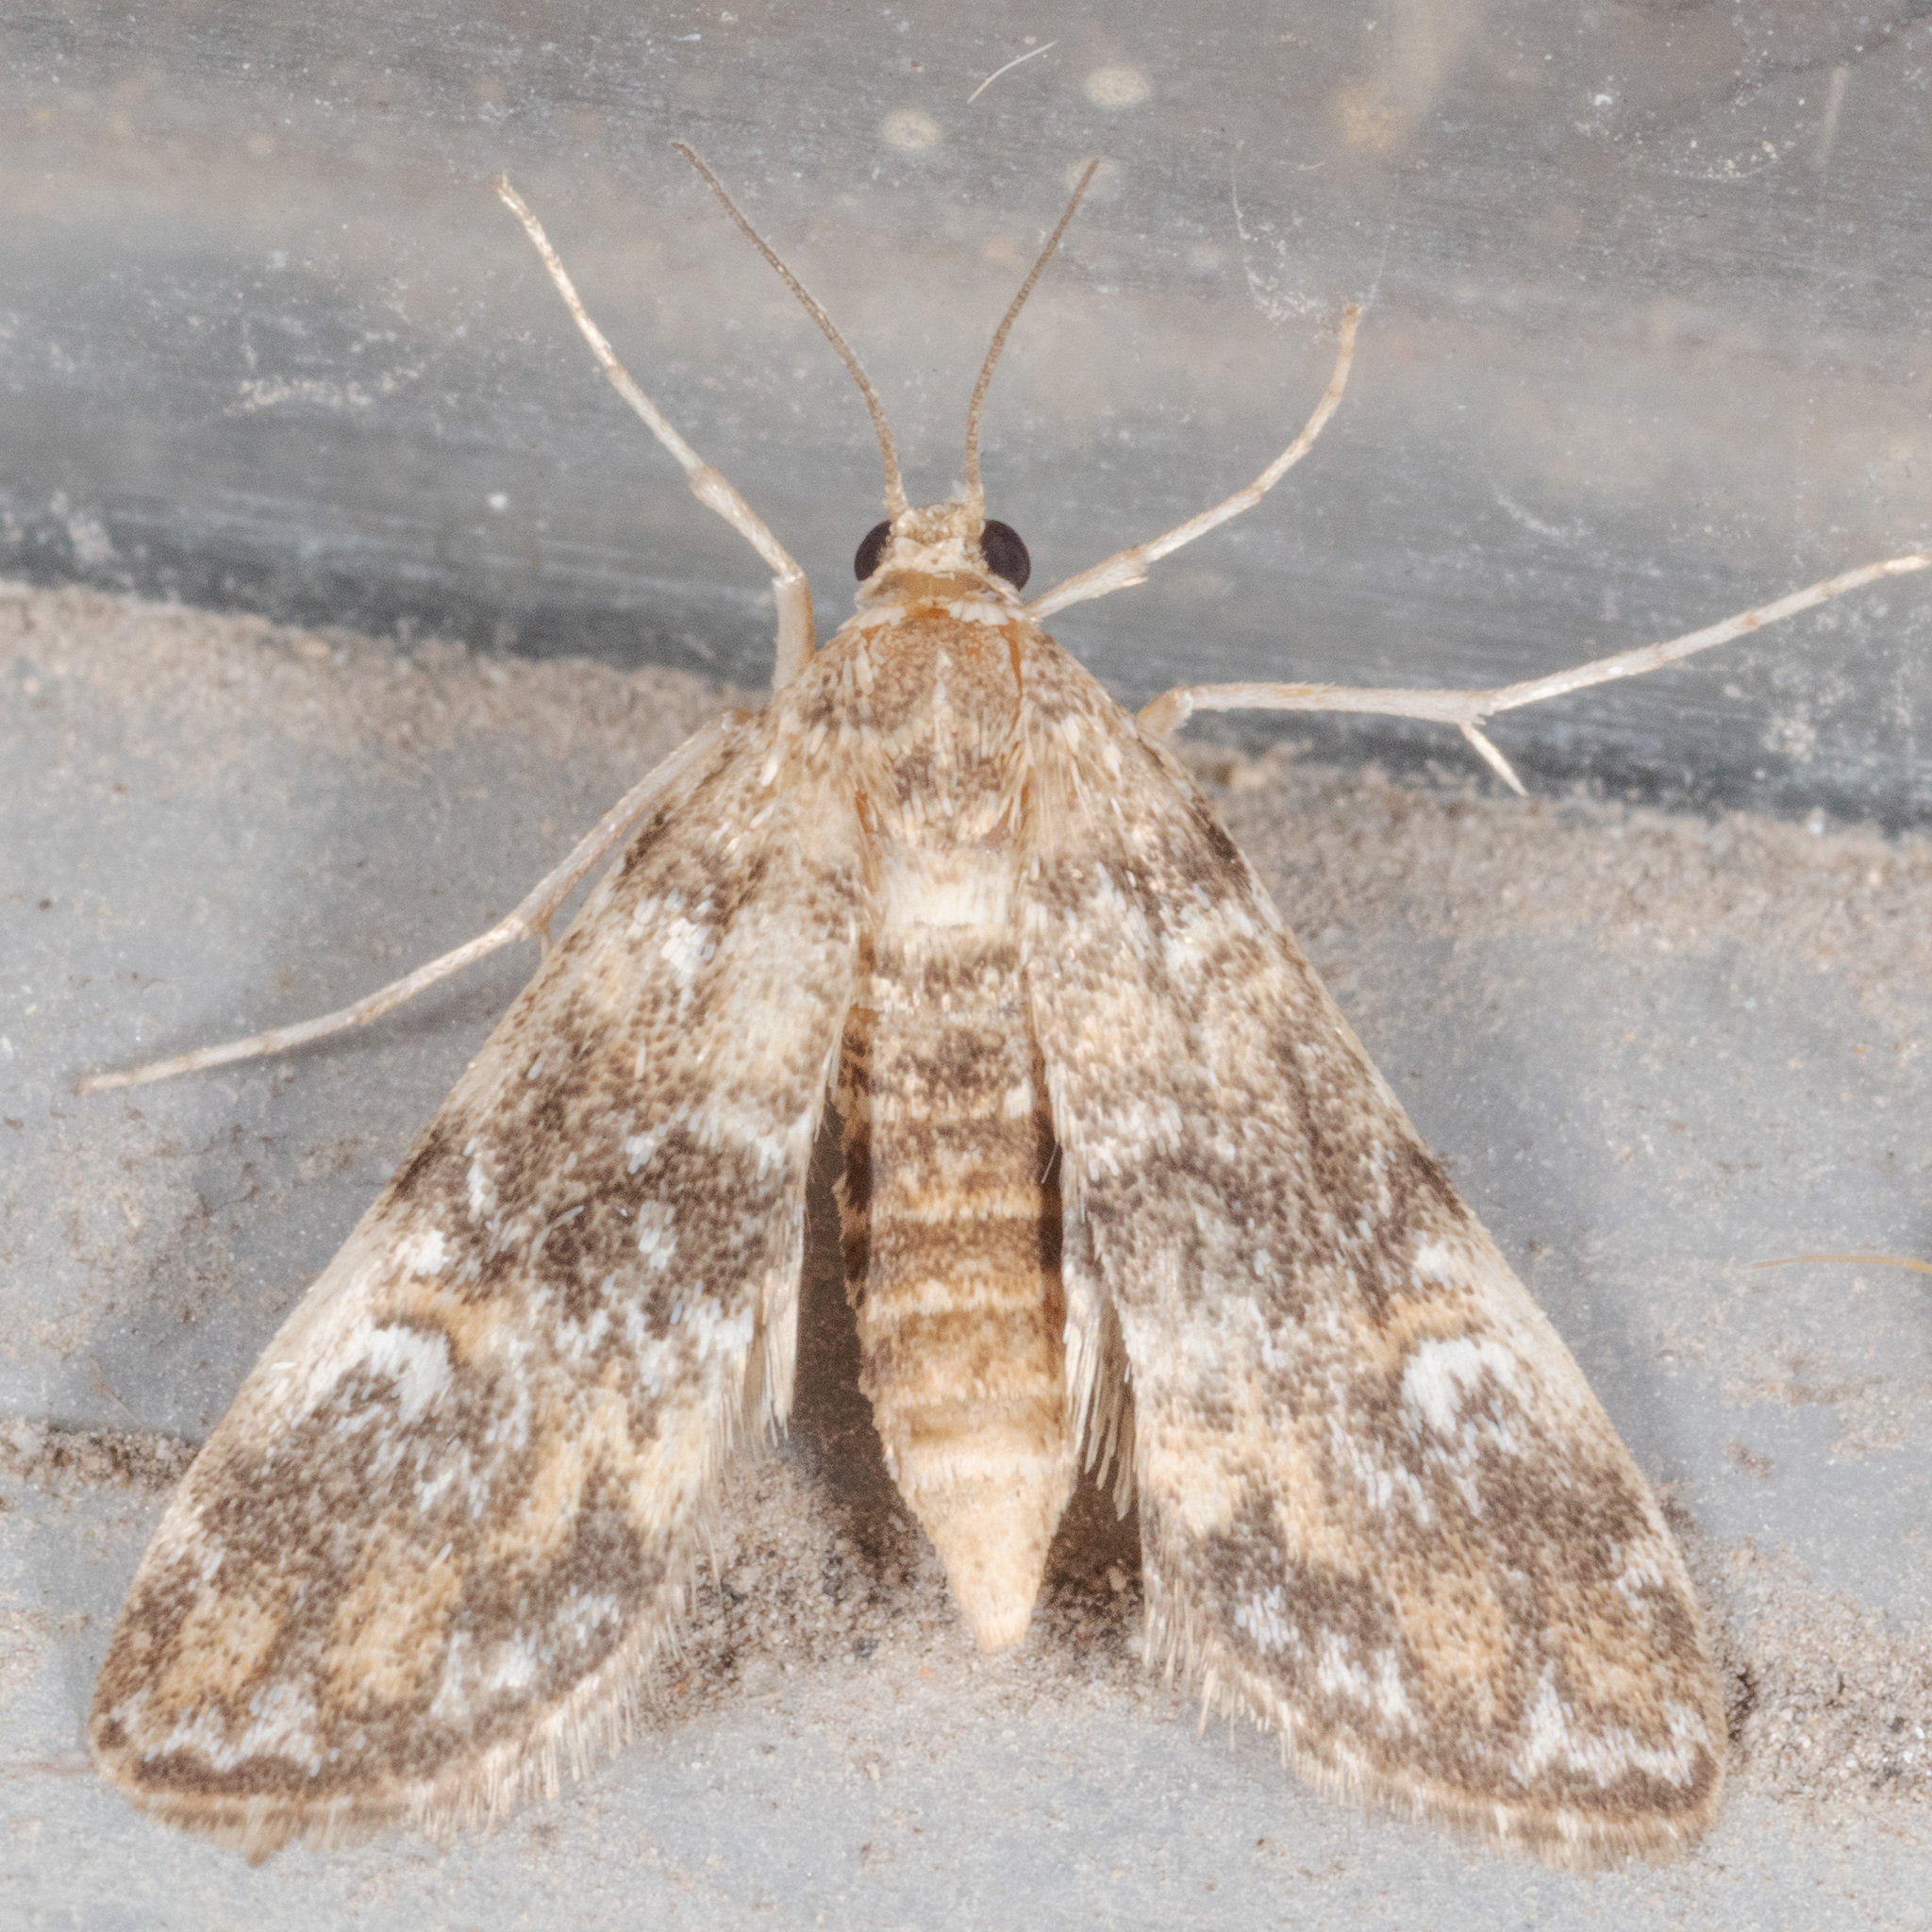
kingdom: Animalia
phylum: Arthropoda
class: Insecta
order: Lepidoptera
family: Crambidae
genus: Elophila
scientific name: Elophila obliteralis
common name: Waterlily leafcutter moth
